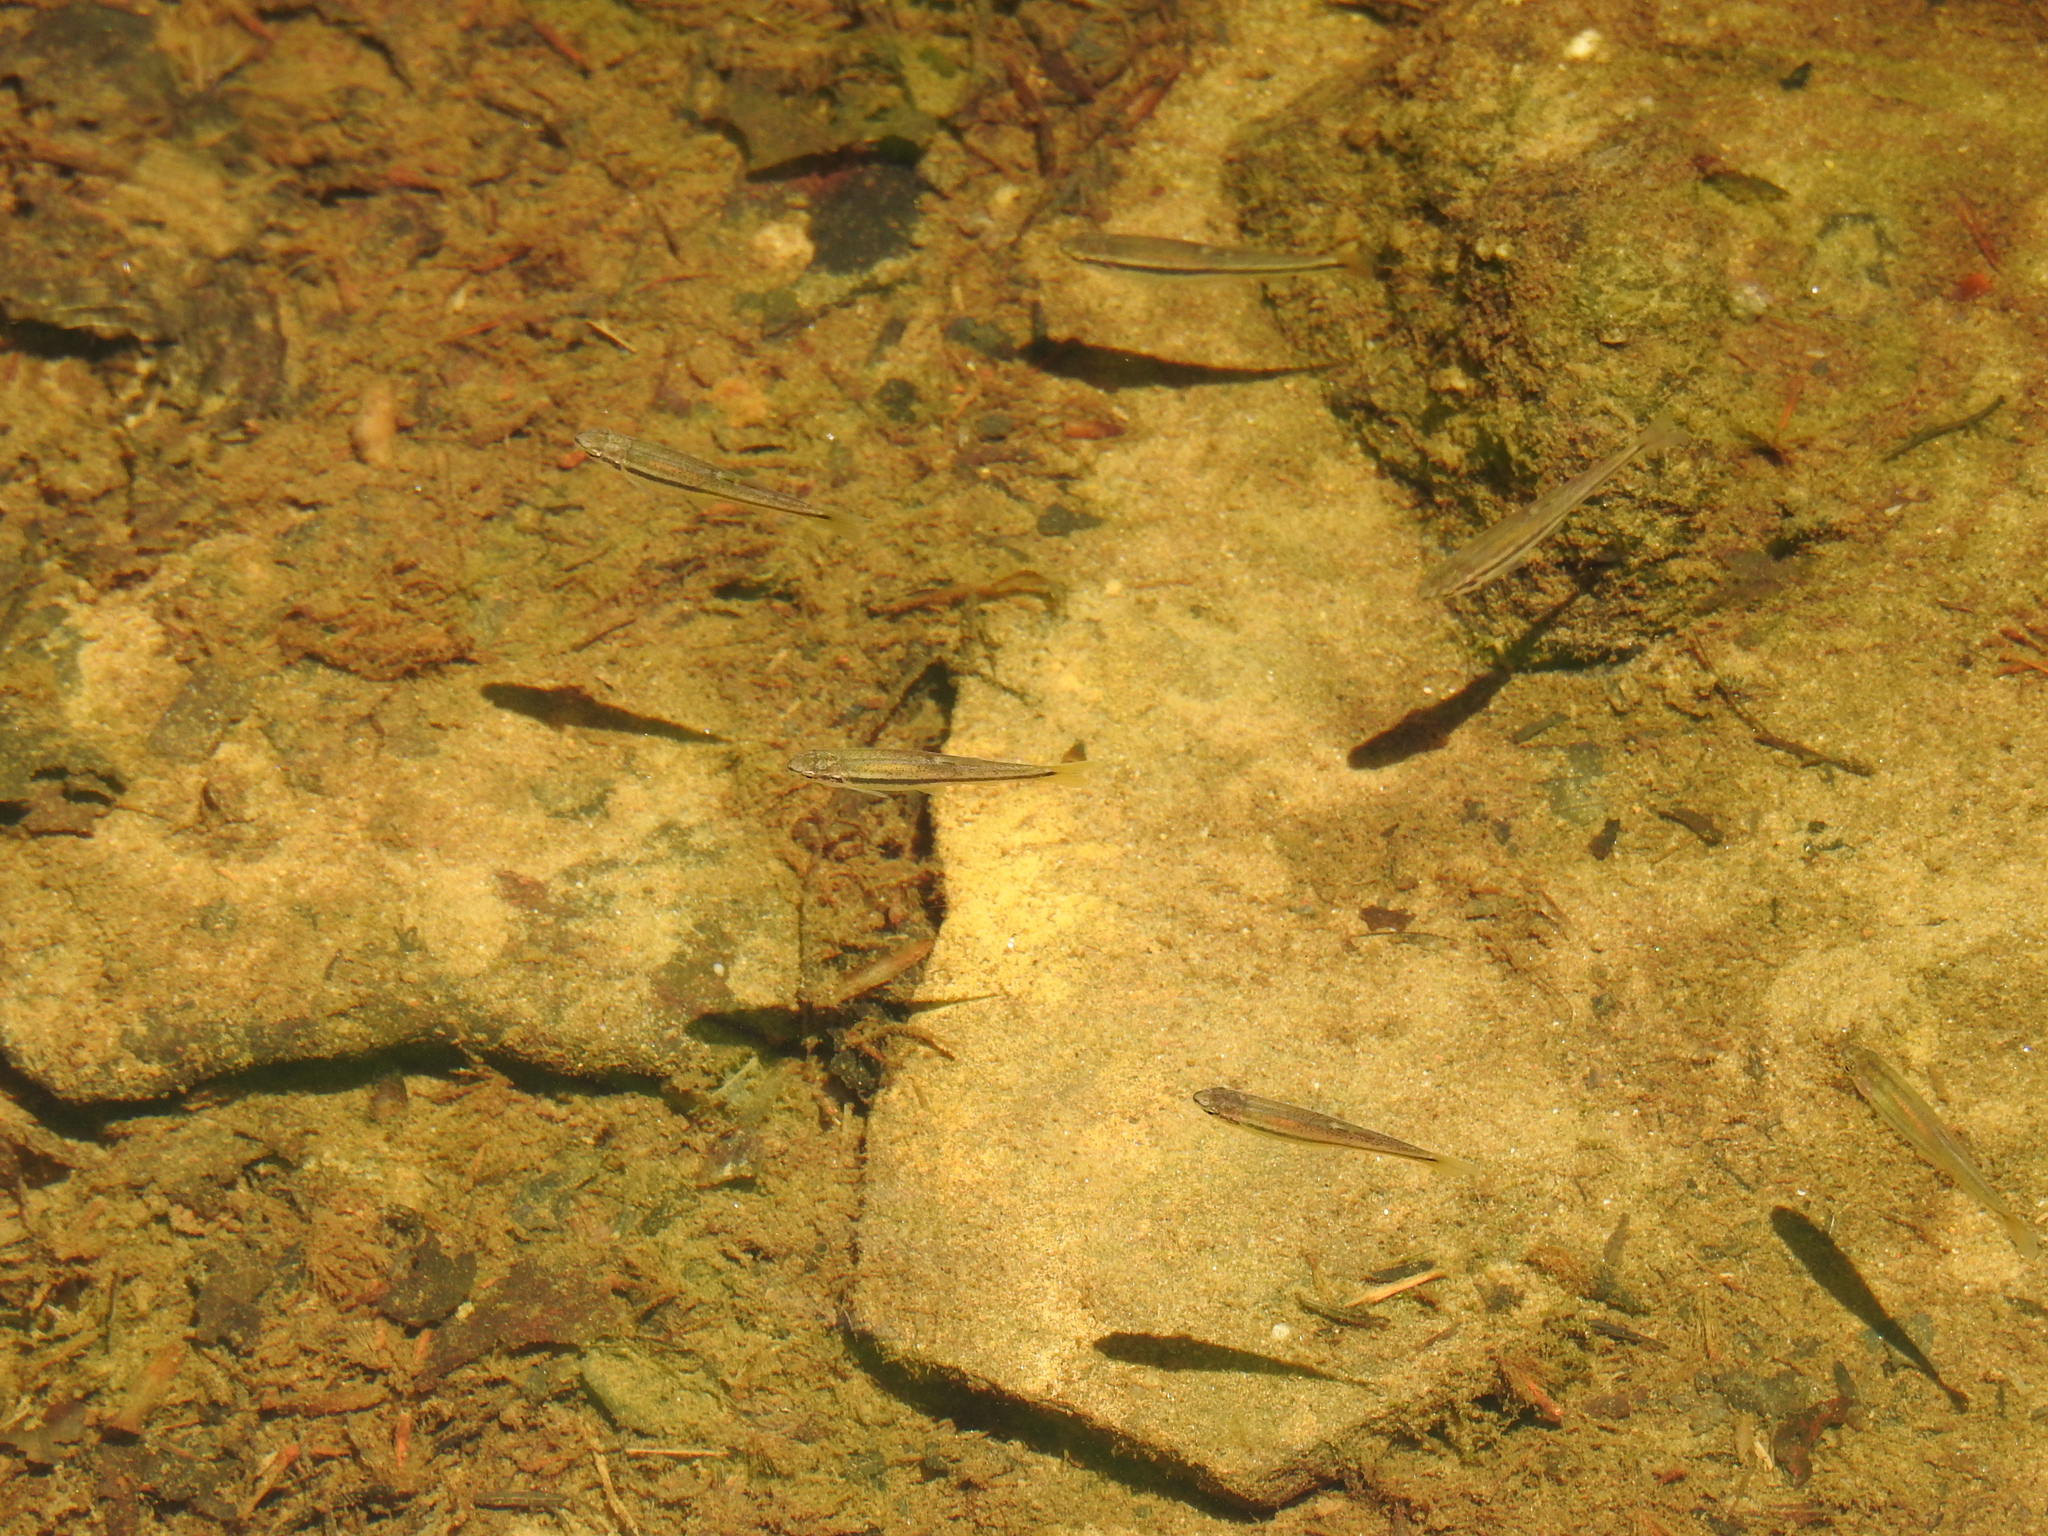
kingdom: Animalia
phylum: Chordata
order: Cypriniformes
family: Cyprinidae
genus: Rhinichthys
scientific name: Rhinichthys obtusus
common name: Western blacknose dace
